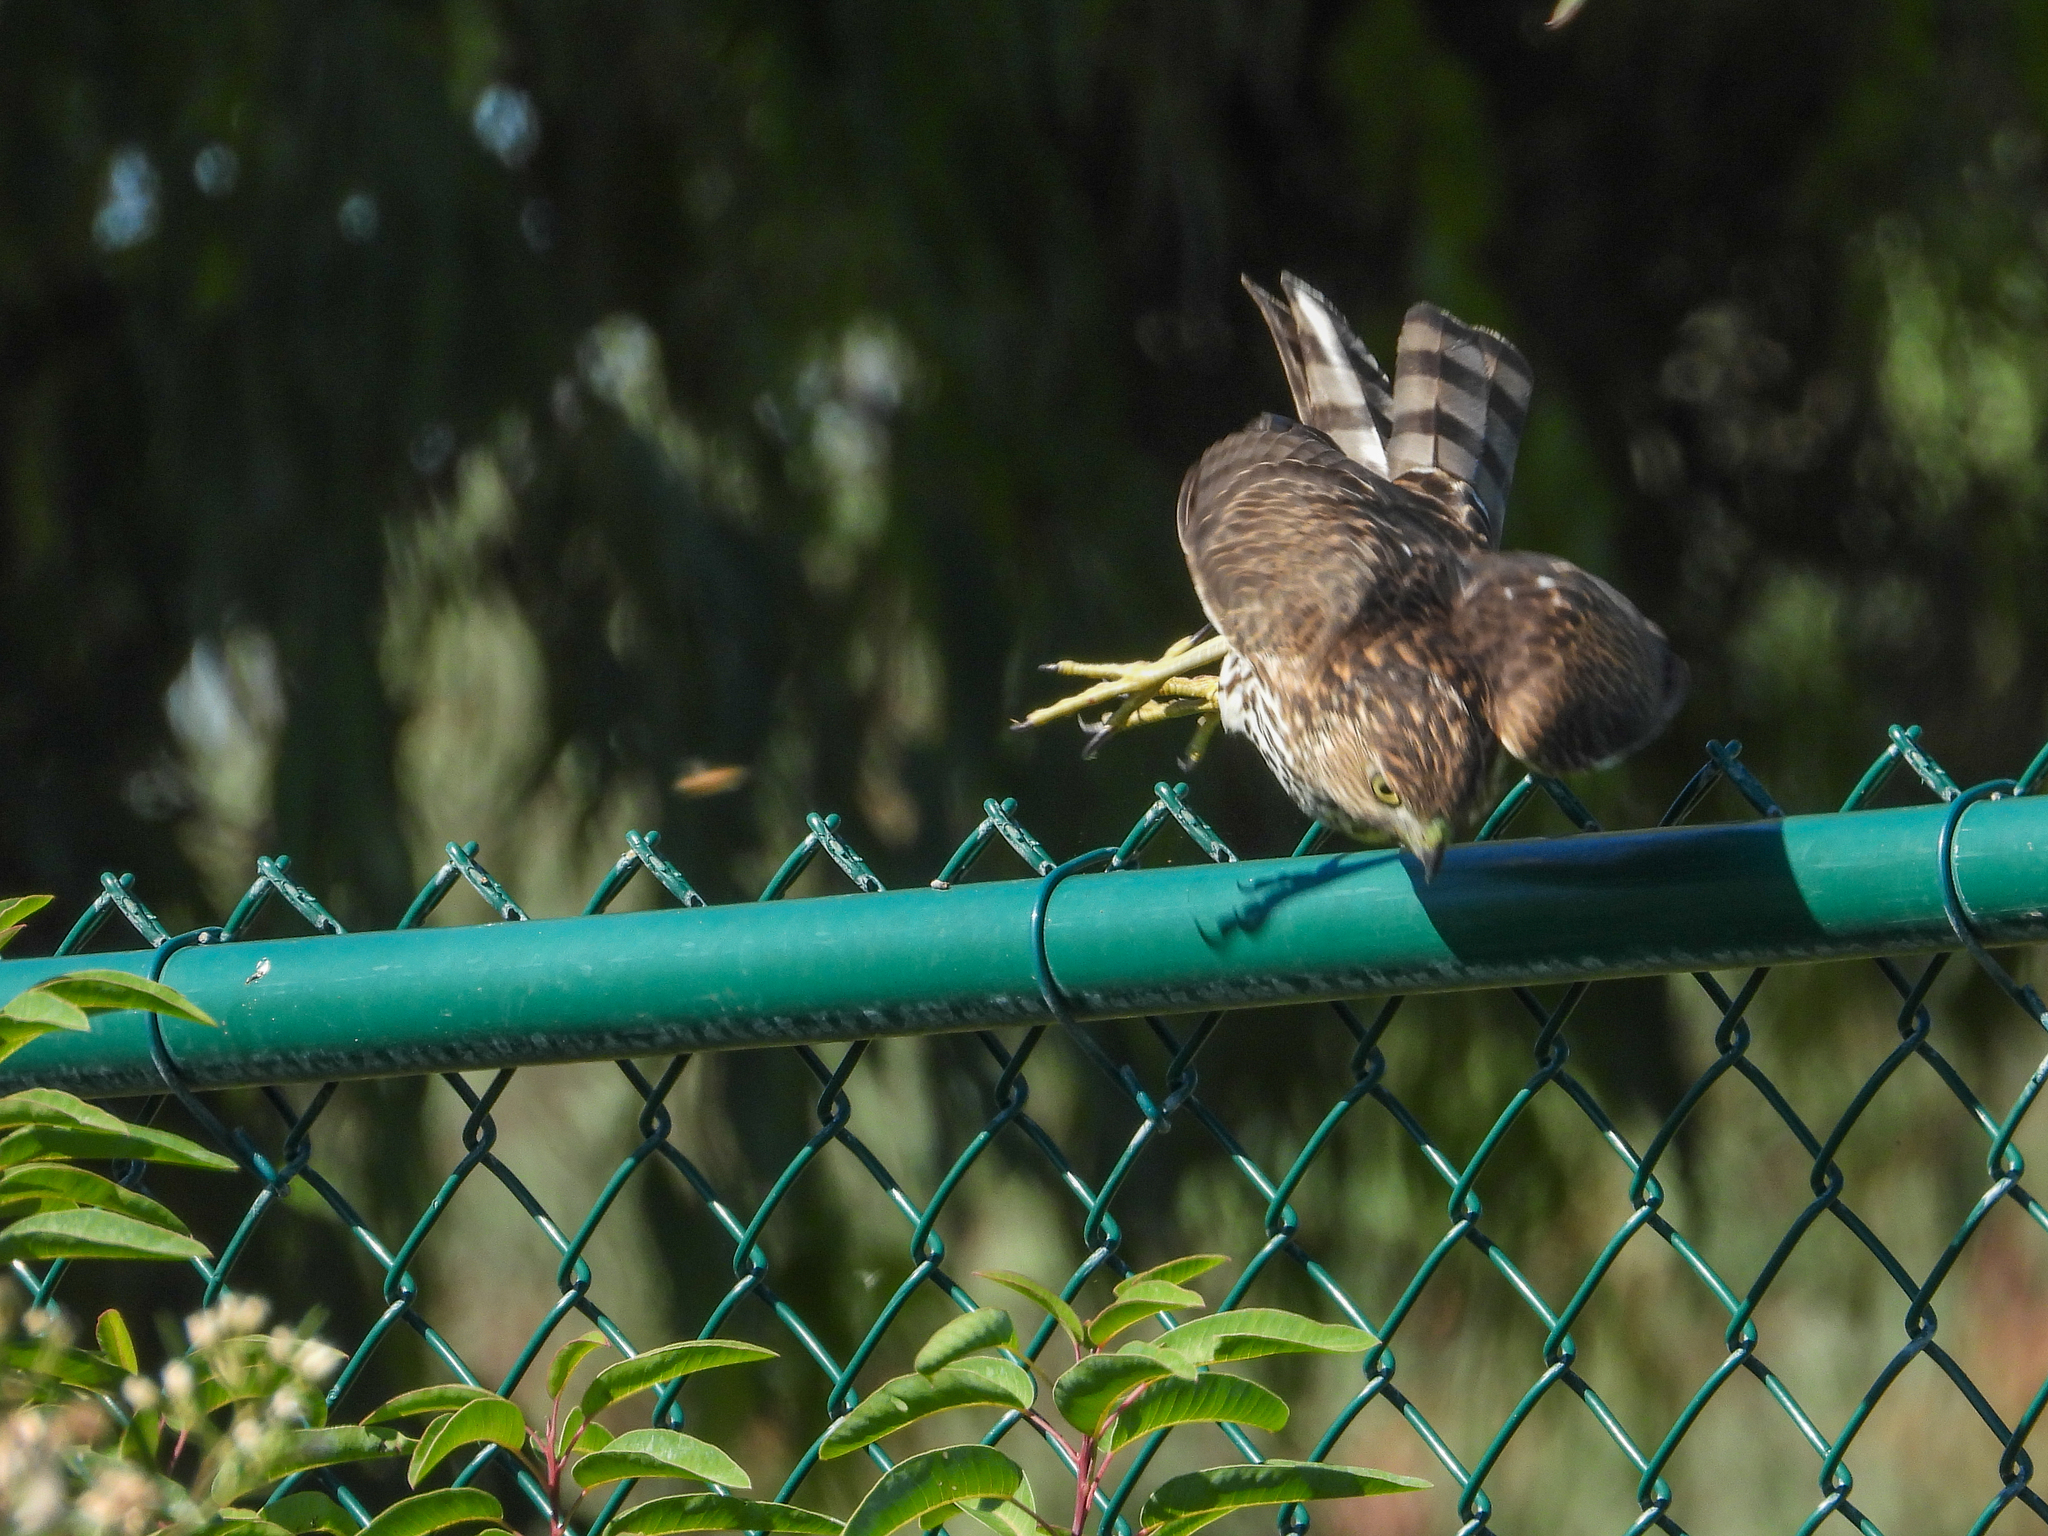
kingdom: Animalia
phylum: Chordata
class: Aves
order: Accipitriformes
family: Accipitridae
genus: Accipiter
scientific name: Accipiter cooperii
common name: Cooper's hawk
